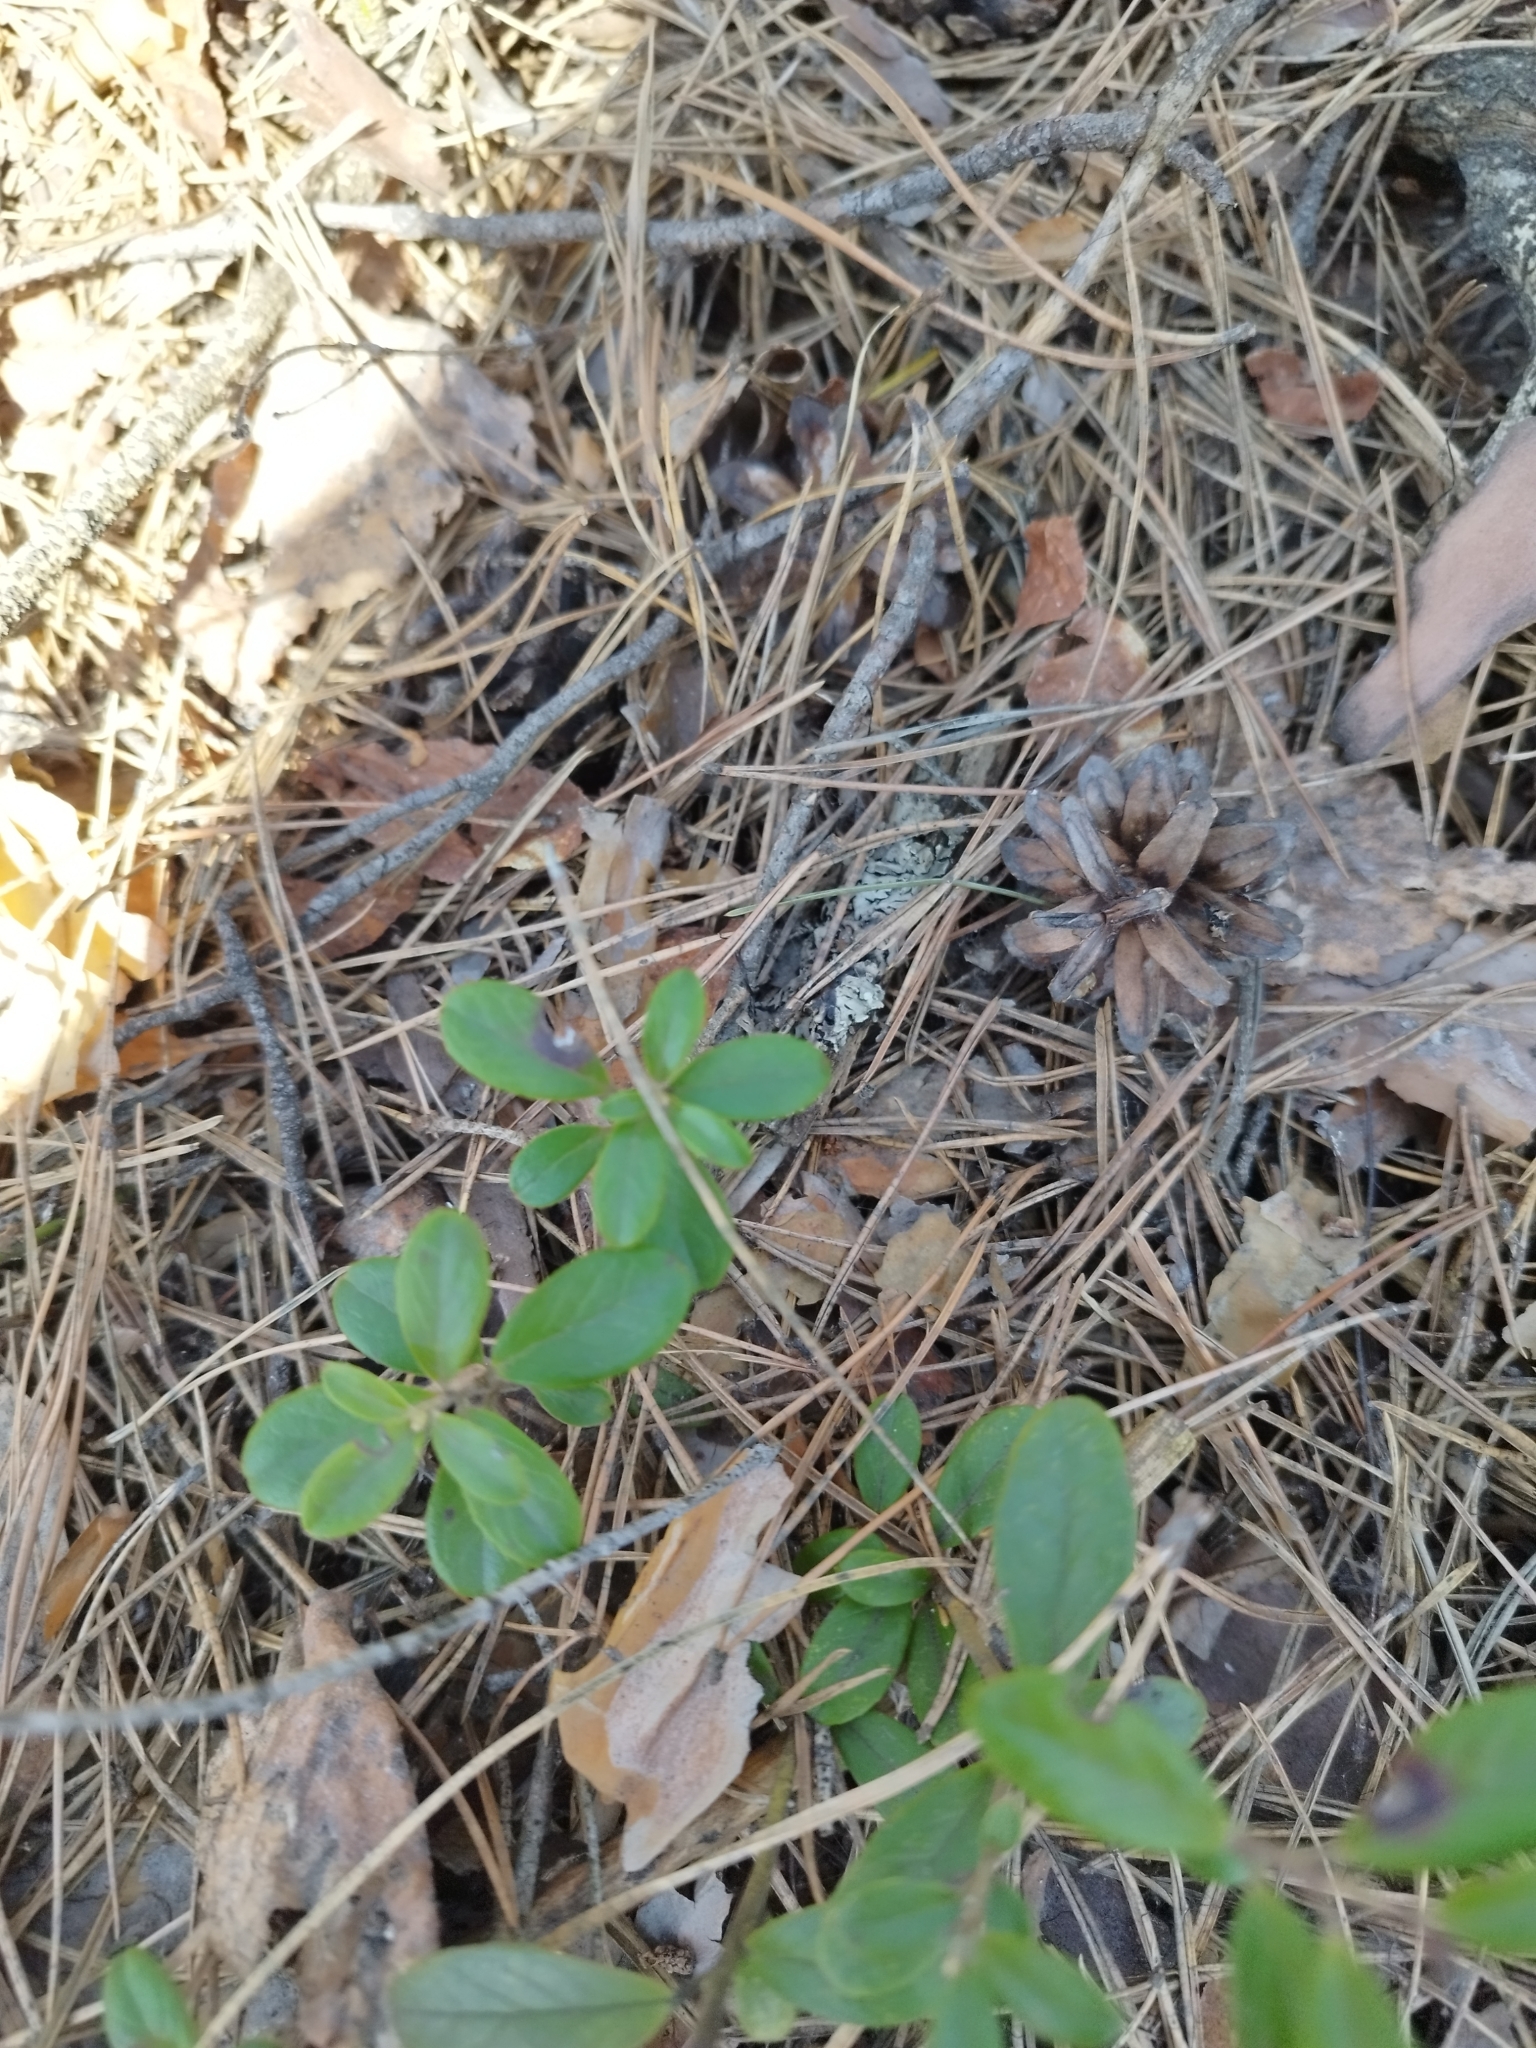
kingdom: Plantae
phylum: Tracheophyta
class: Magnoliopsida
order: Ericales
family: Ericaceae
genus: Vaccinium
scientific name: Vaccinium vitis-idaea
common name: Cowberry
